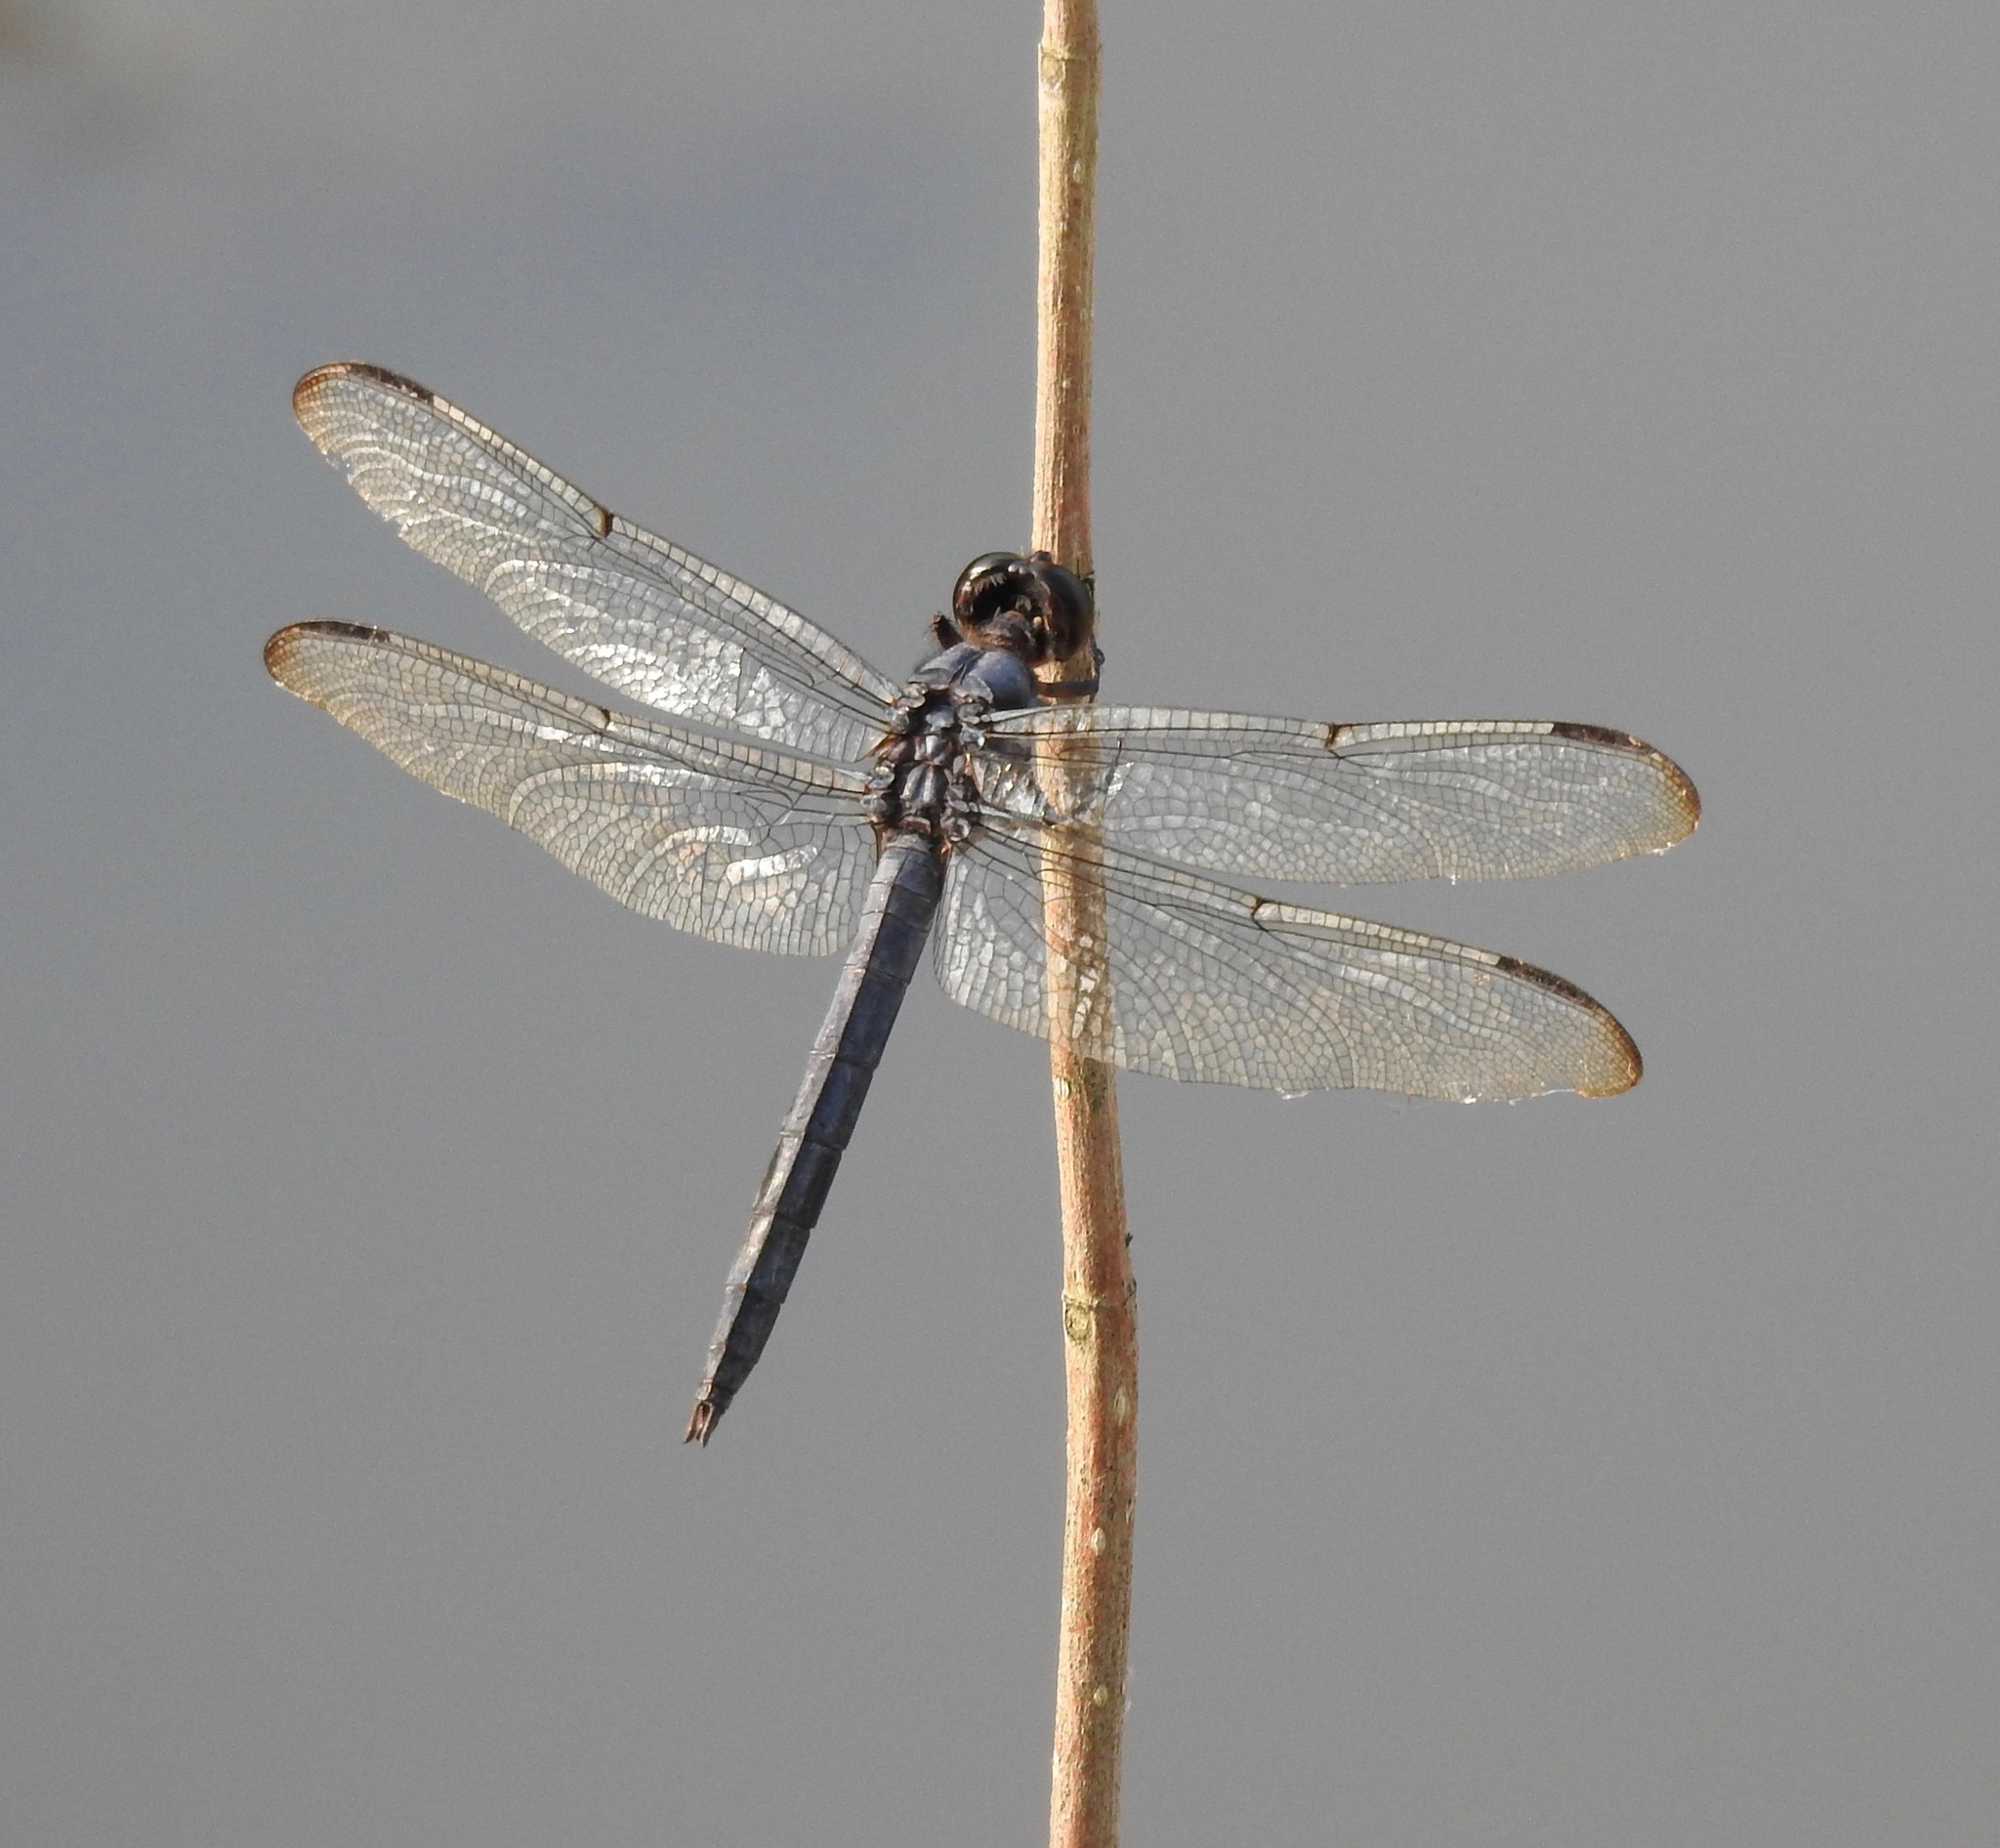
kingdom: Animalia
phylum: Arthropoda
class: Insecta
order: Odonata
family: Libellulidae
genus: Libellula
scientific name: Libellula incesta
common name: Slaty skimmer
